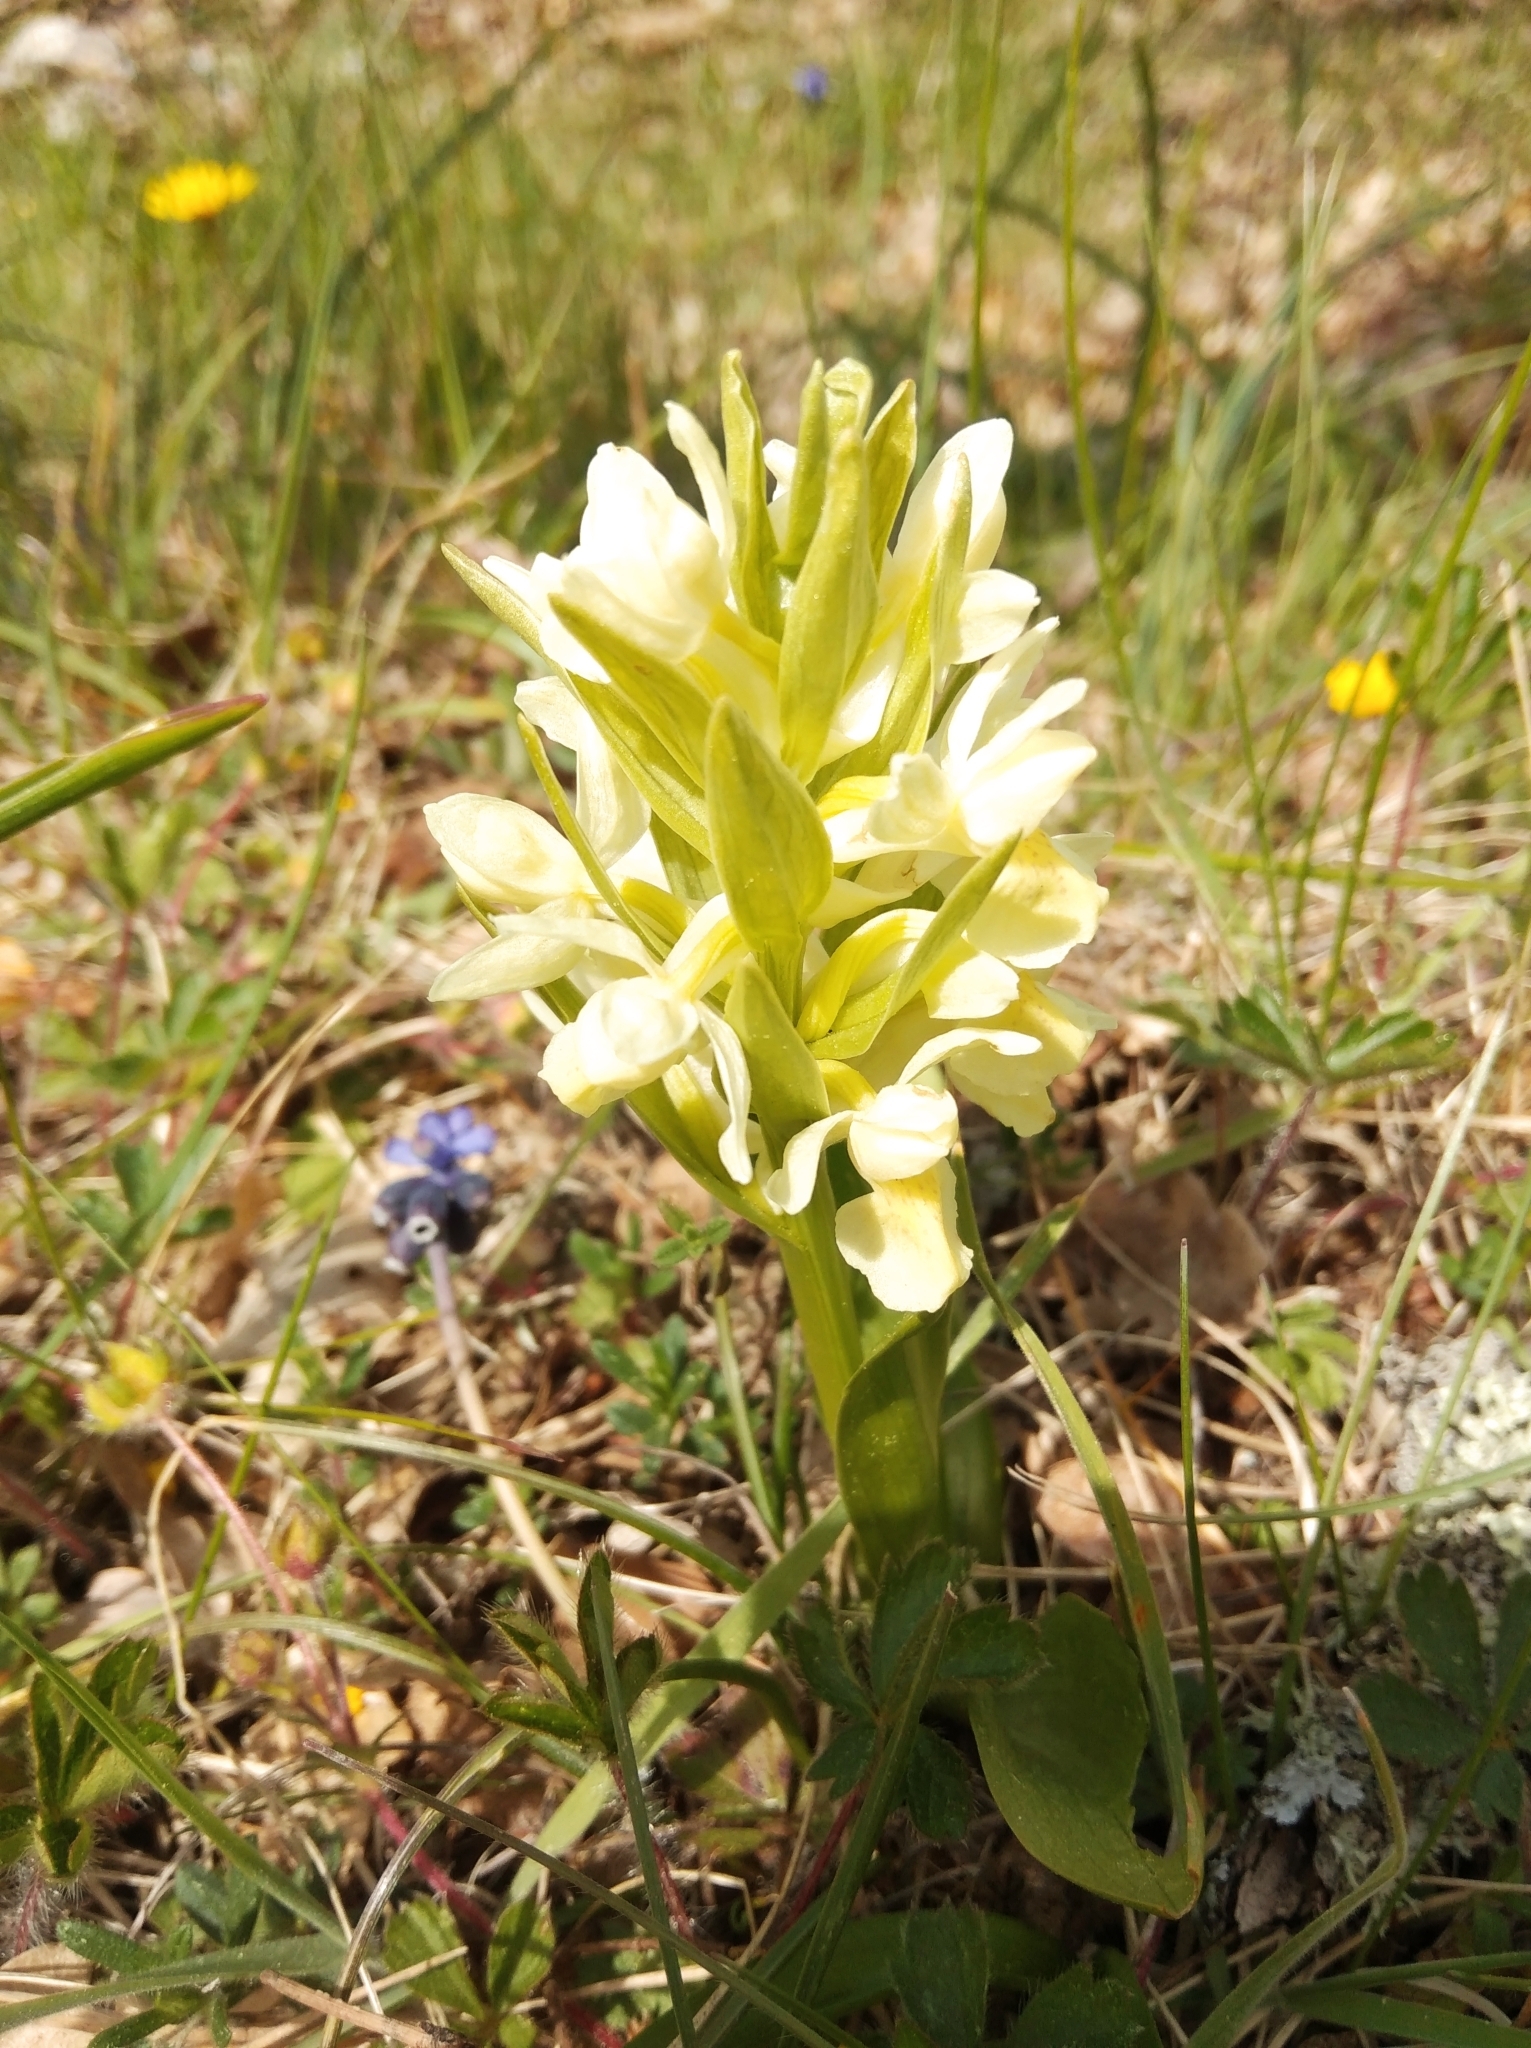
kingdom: Plantae
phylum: Tracheophyta
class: Liliopsida
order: Asparagales
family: Orchidaceae
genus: Dactylorhiza
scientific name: Dactylorhiza sambucina
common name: Elder-flowered orchid
